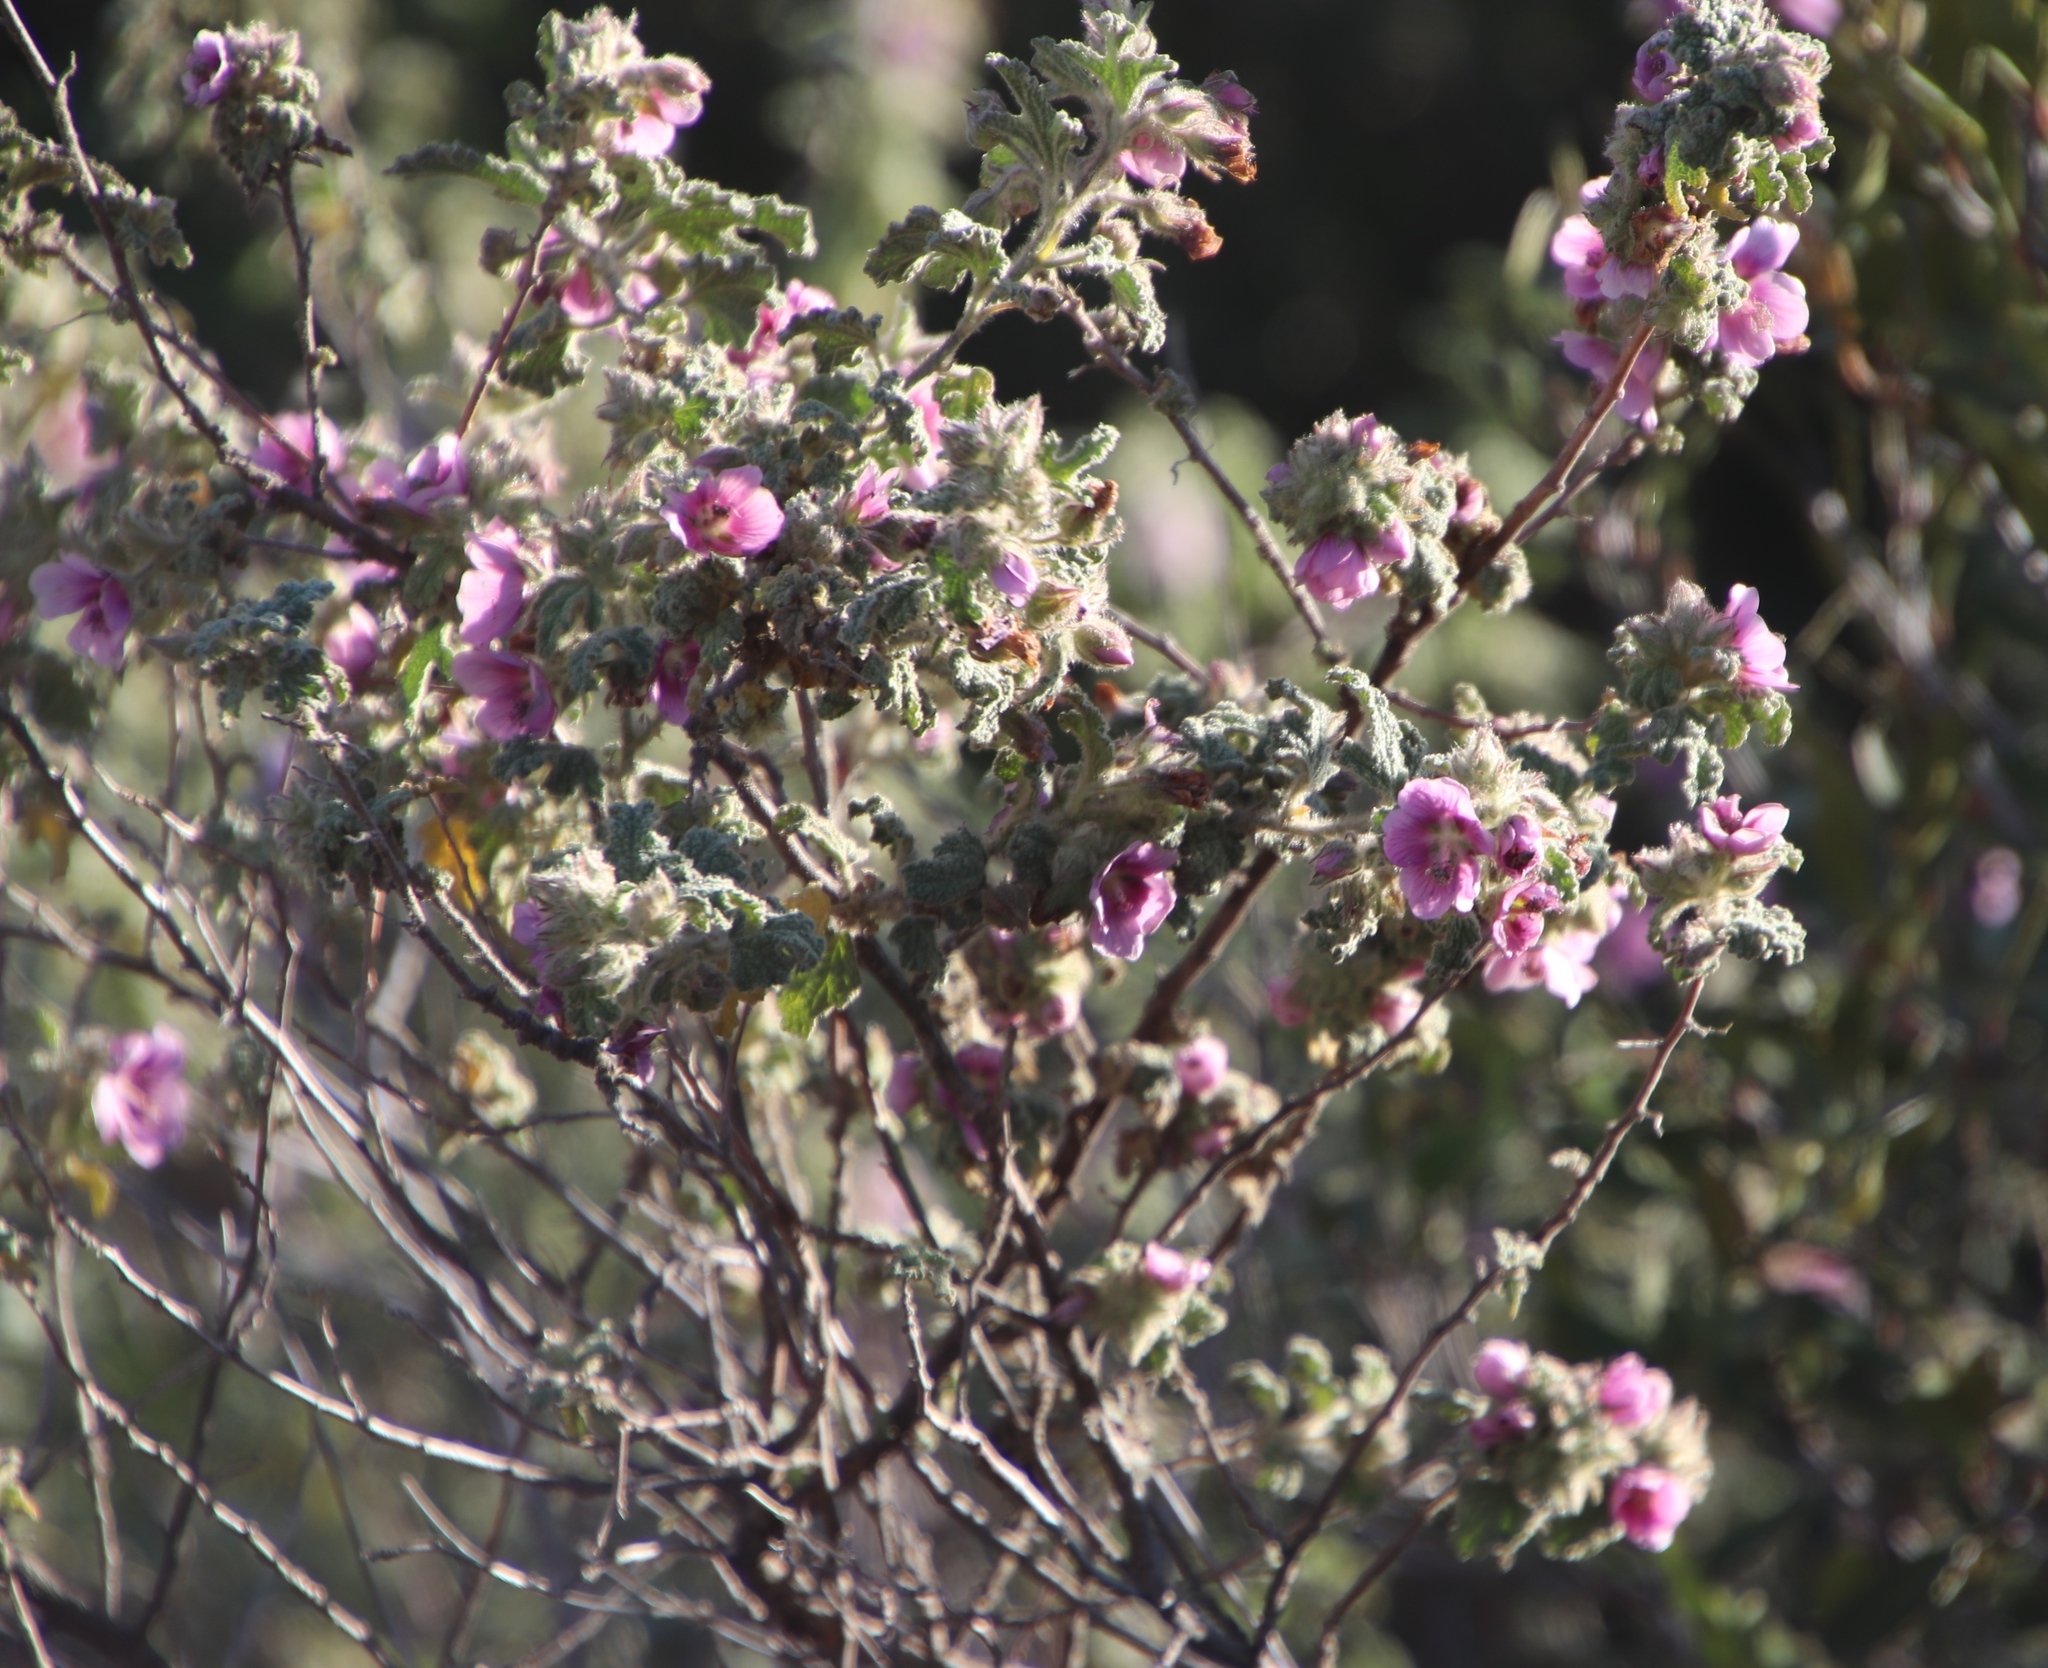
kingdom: Plantae
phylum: Tracheophyta
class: Magnoliopsida
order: Malvales
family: Malvaceae
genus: Anisodontea
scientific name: Anisodontea scabrosa
